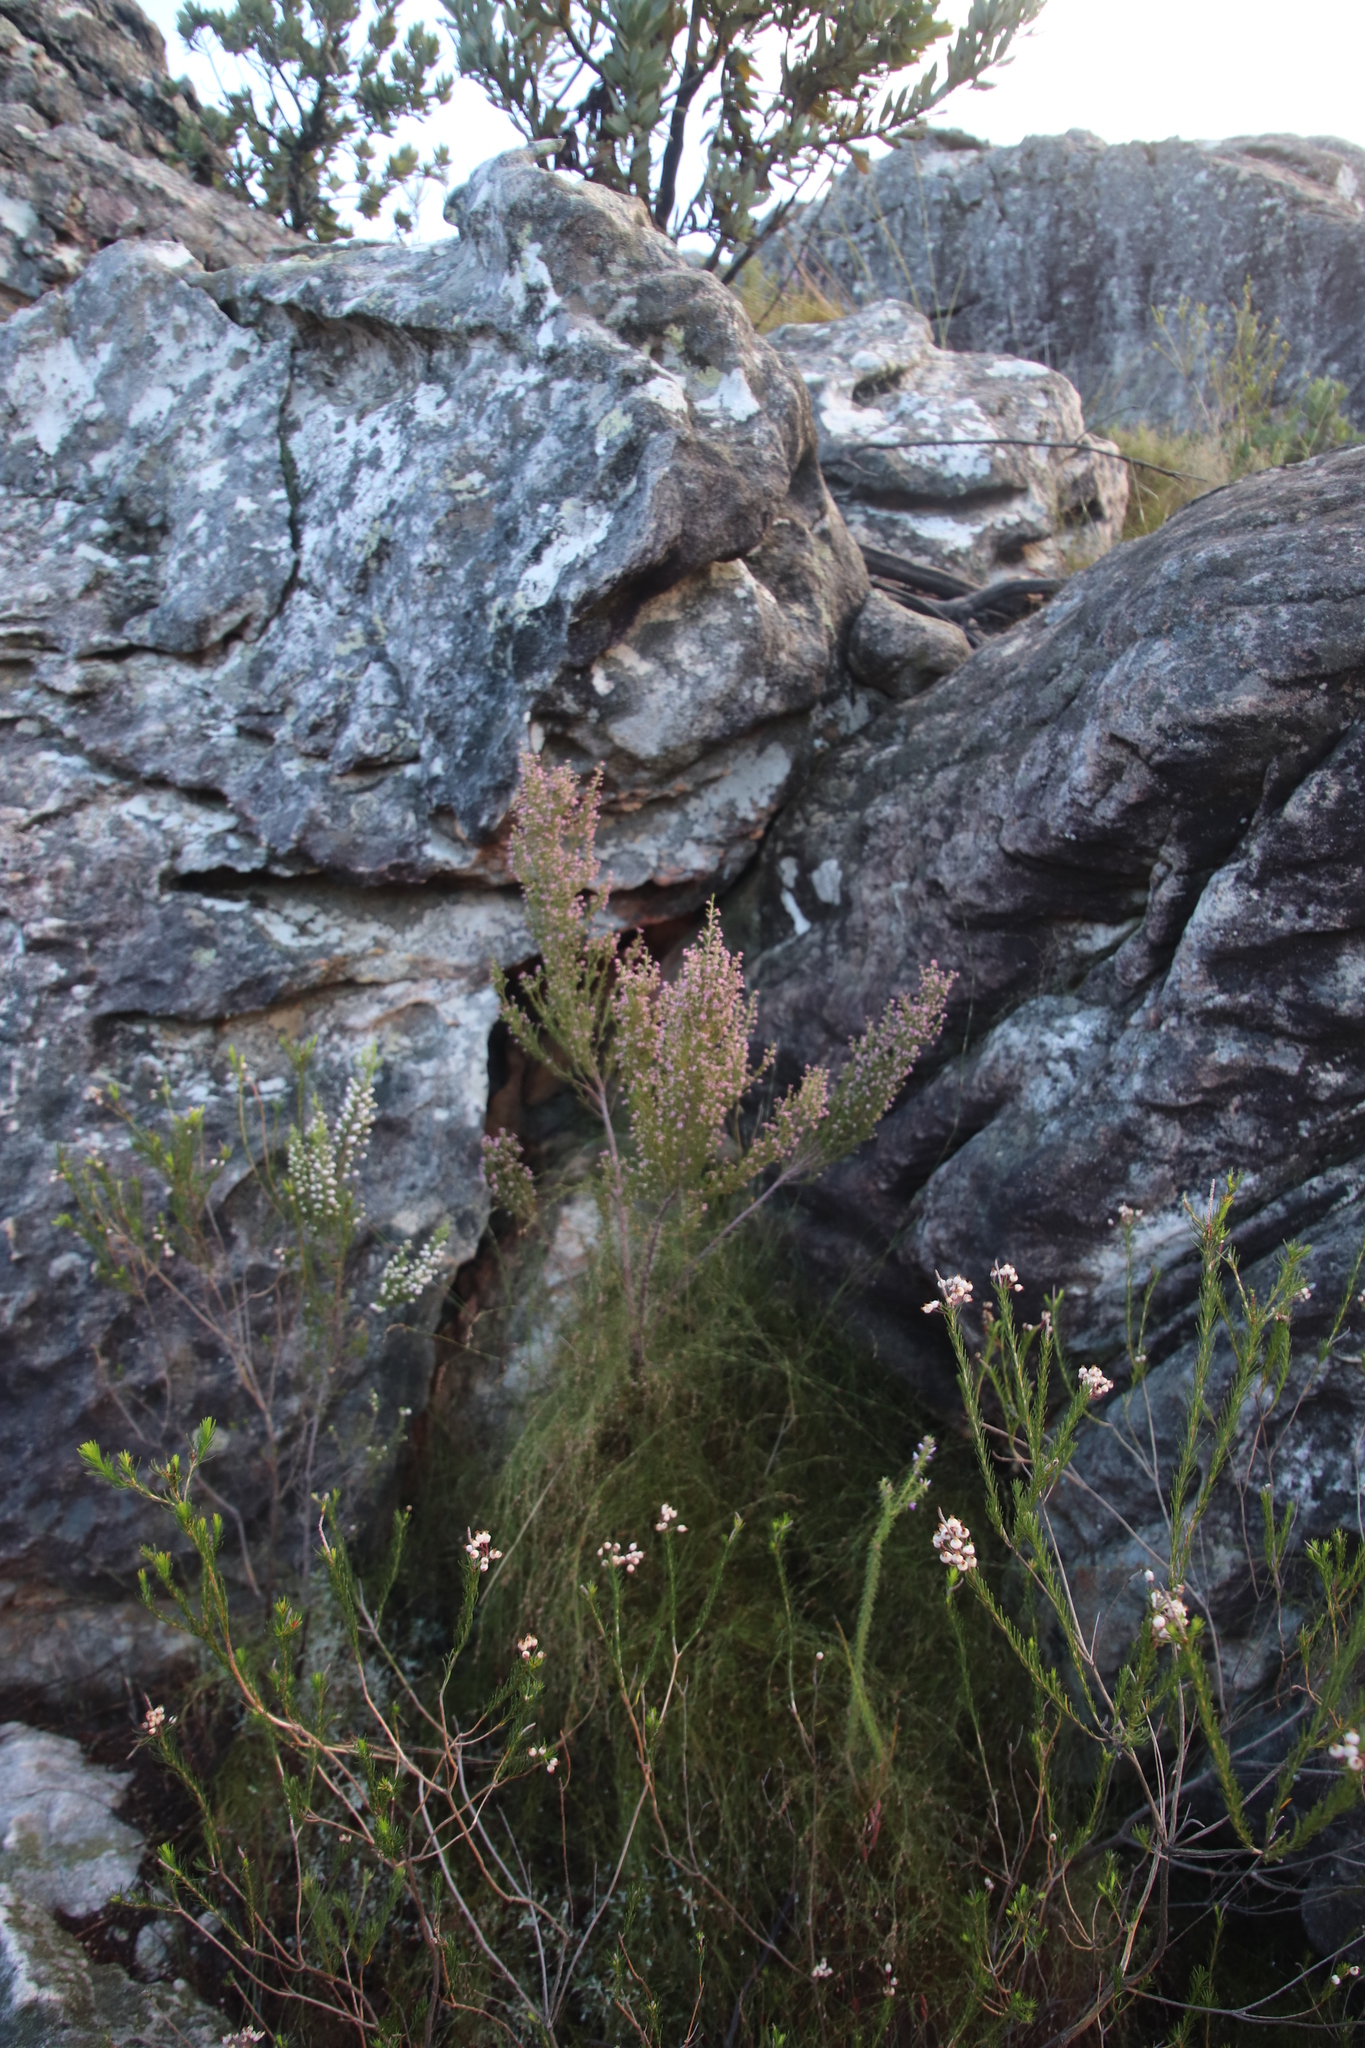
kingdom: Plantae
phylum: Tracheophyta
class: Magnoliopsida
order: Ericales
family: Ericaceae
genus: Erica
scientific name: Erica lucida
